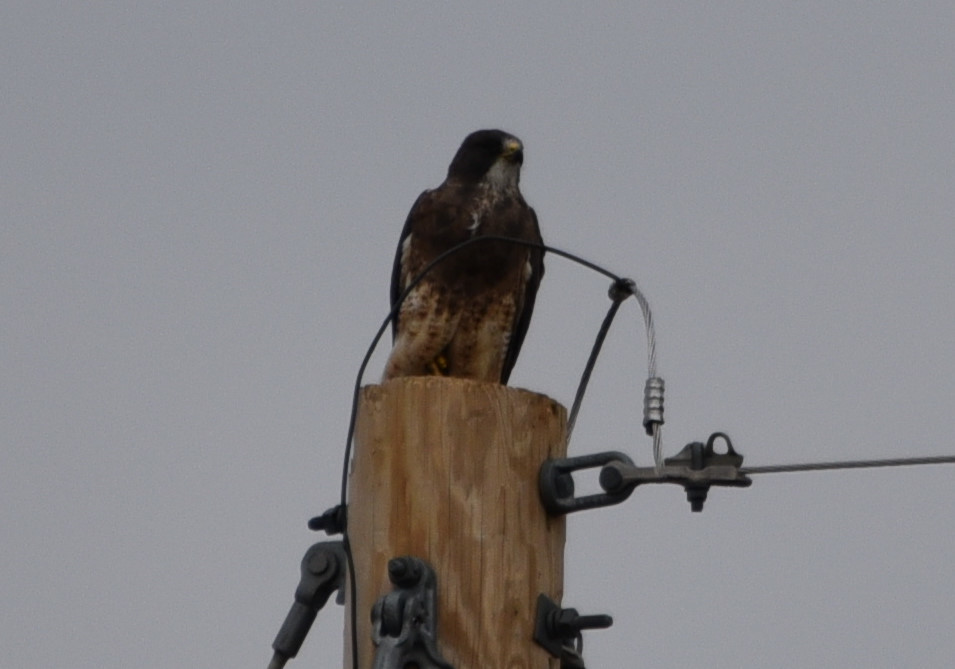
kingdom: Animalia
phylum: Chordata
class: Aves
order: Accipitriformes
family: Accipitridae
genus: Buteo
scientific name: Buteo swainsoni
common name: Swainson's hawk
